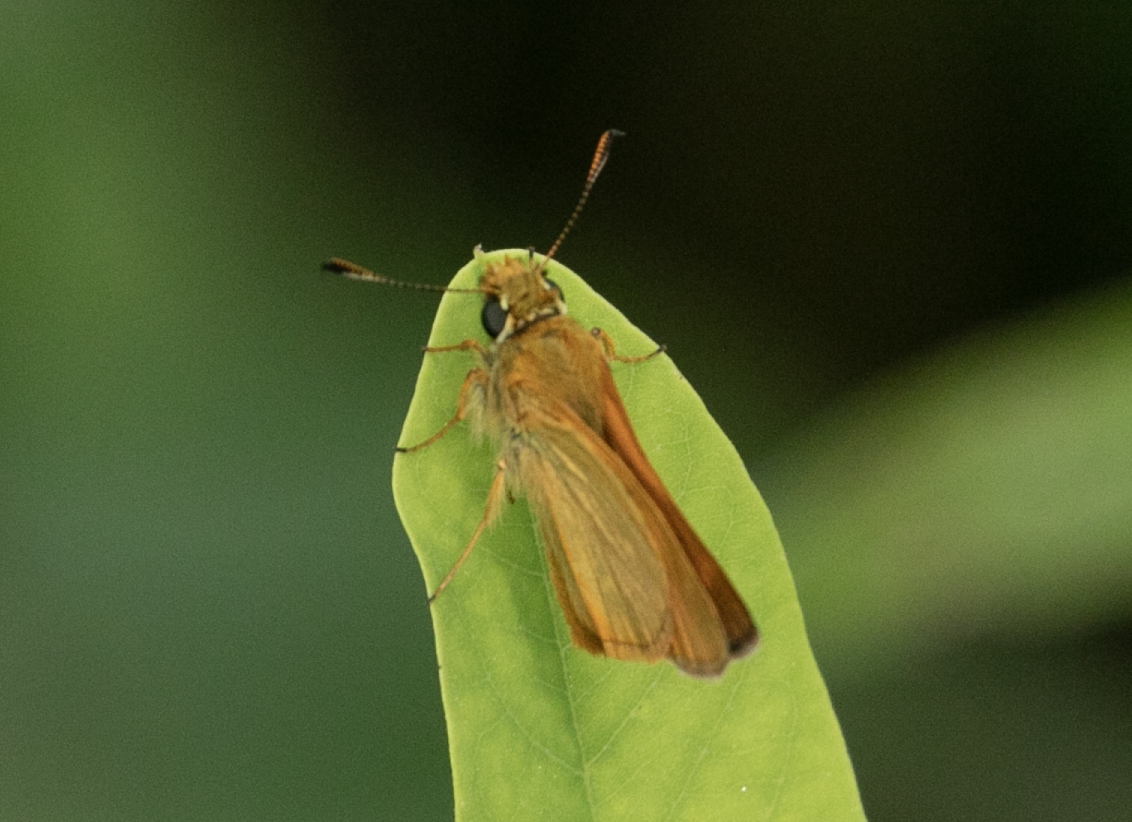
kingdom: Animalia
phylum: Arthropoda
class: Insecta
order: Lepidoptera
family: Hesperiidae
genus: Ochlodes
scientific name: Ochlodes venata
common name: Large skipper
